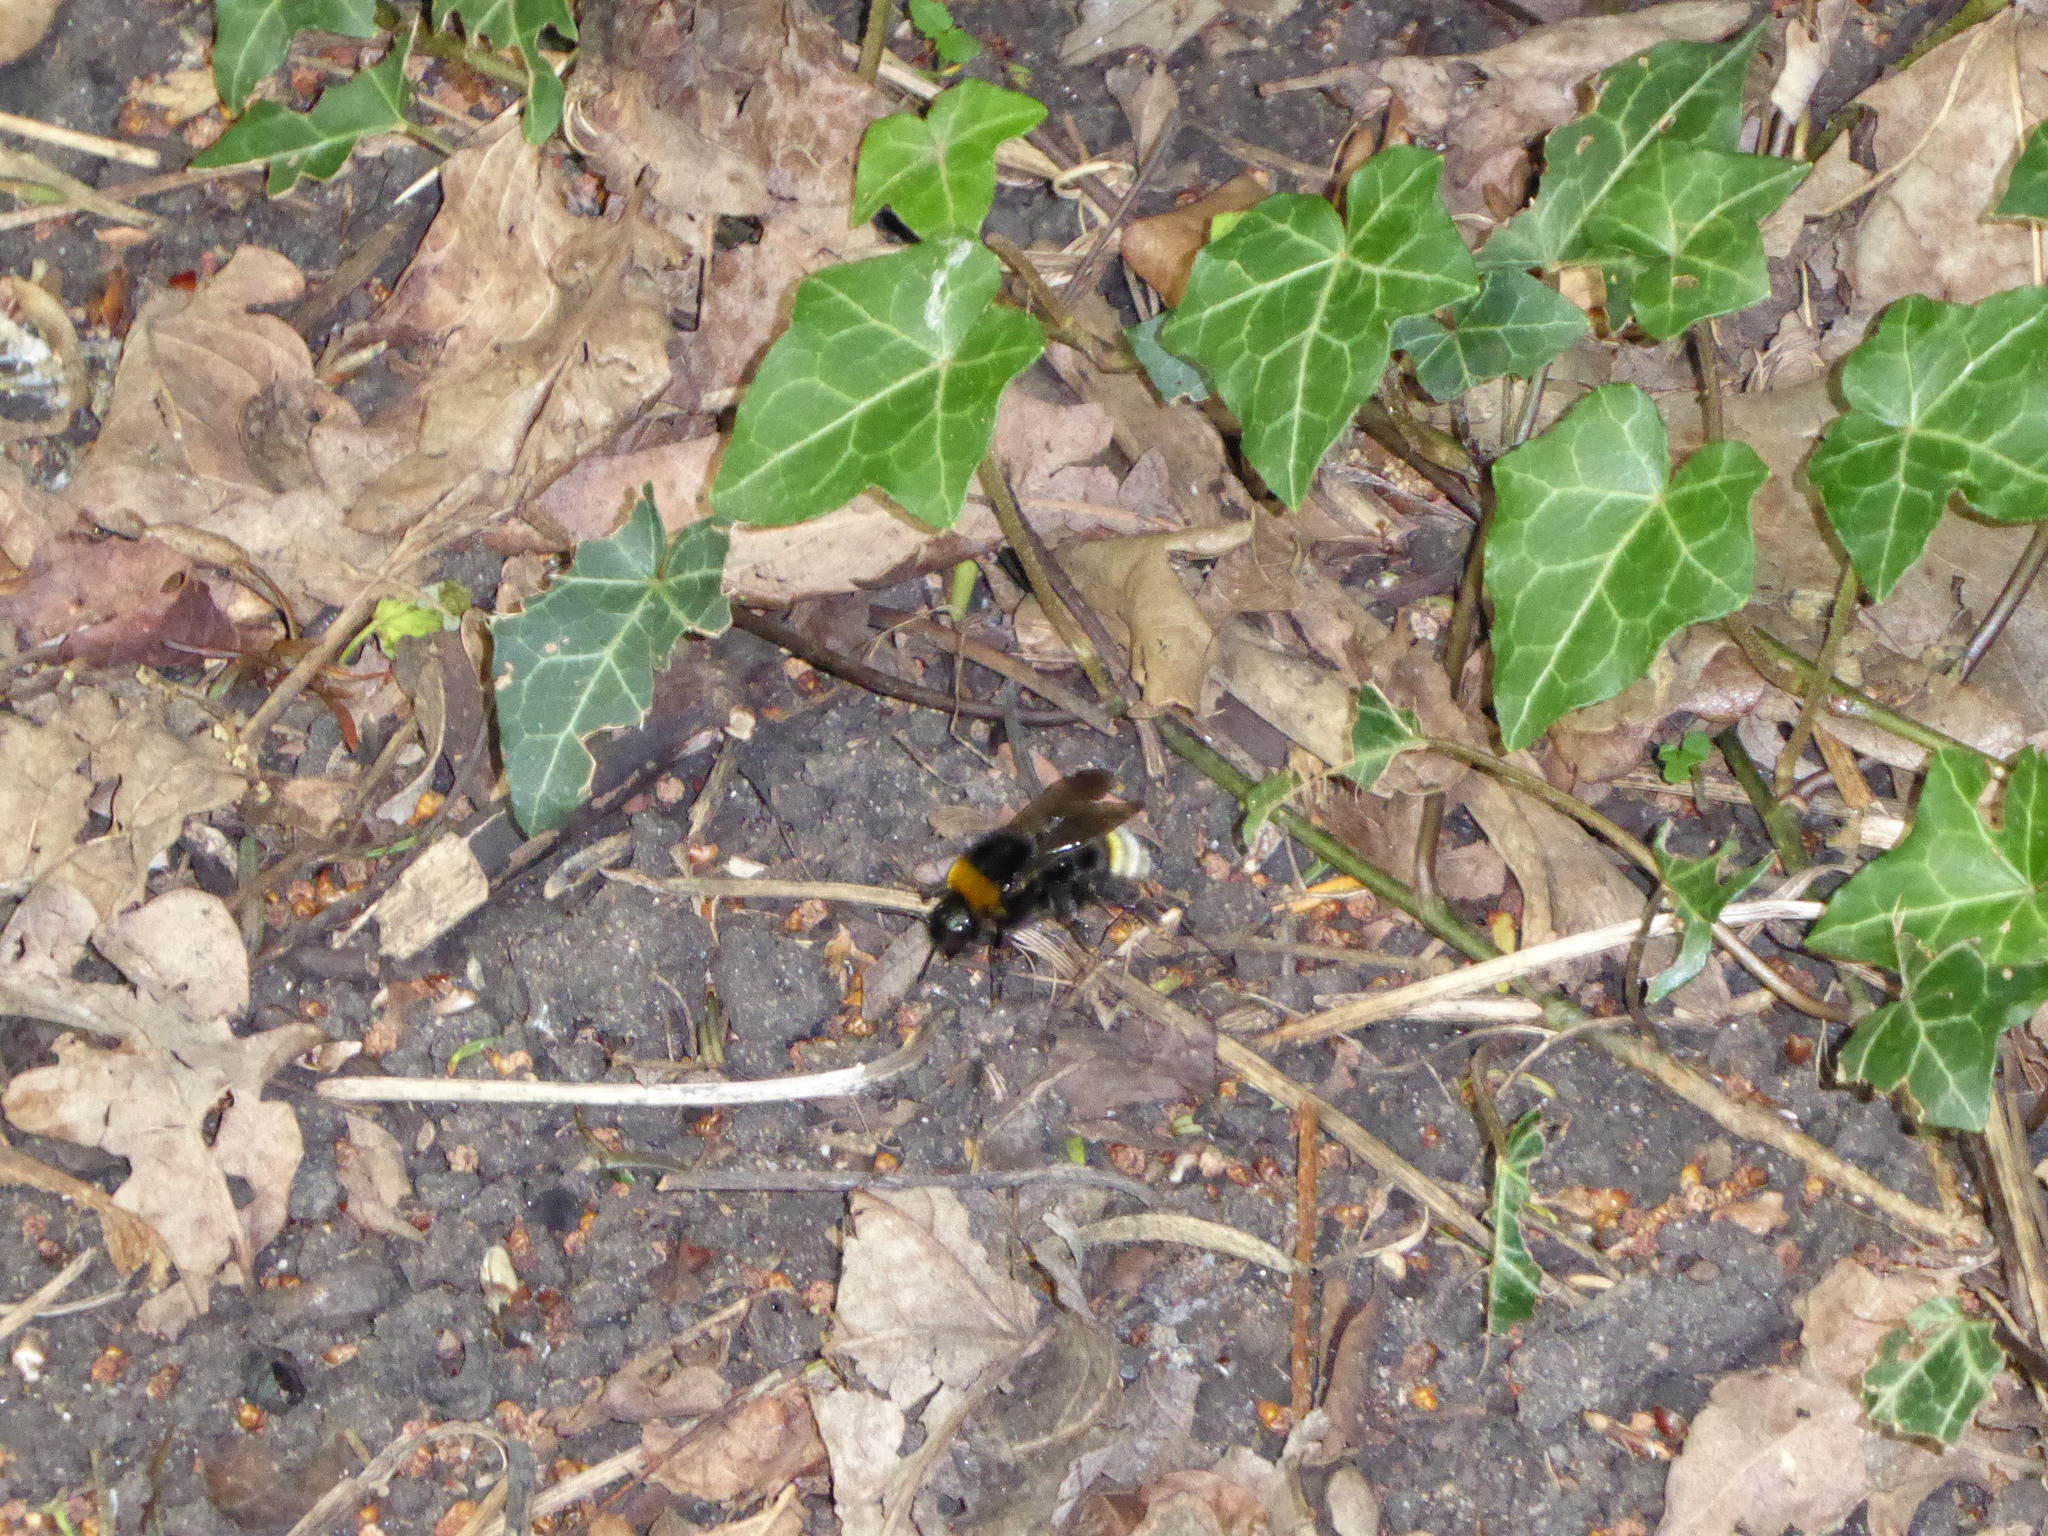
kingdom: Animalia
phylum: Arthropoda
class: Insecta
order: Hymenoptera
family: Apidae
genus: Bombus
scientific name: Bombus vestalis
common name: Vestal cuckoo bee
